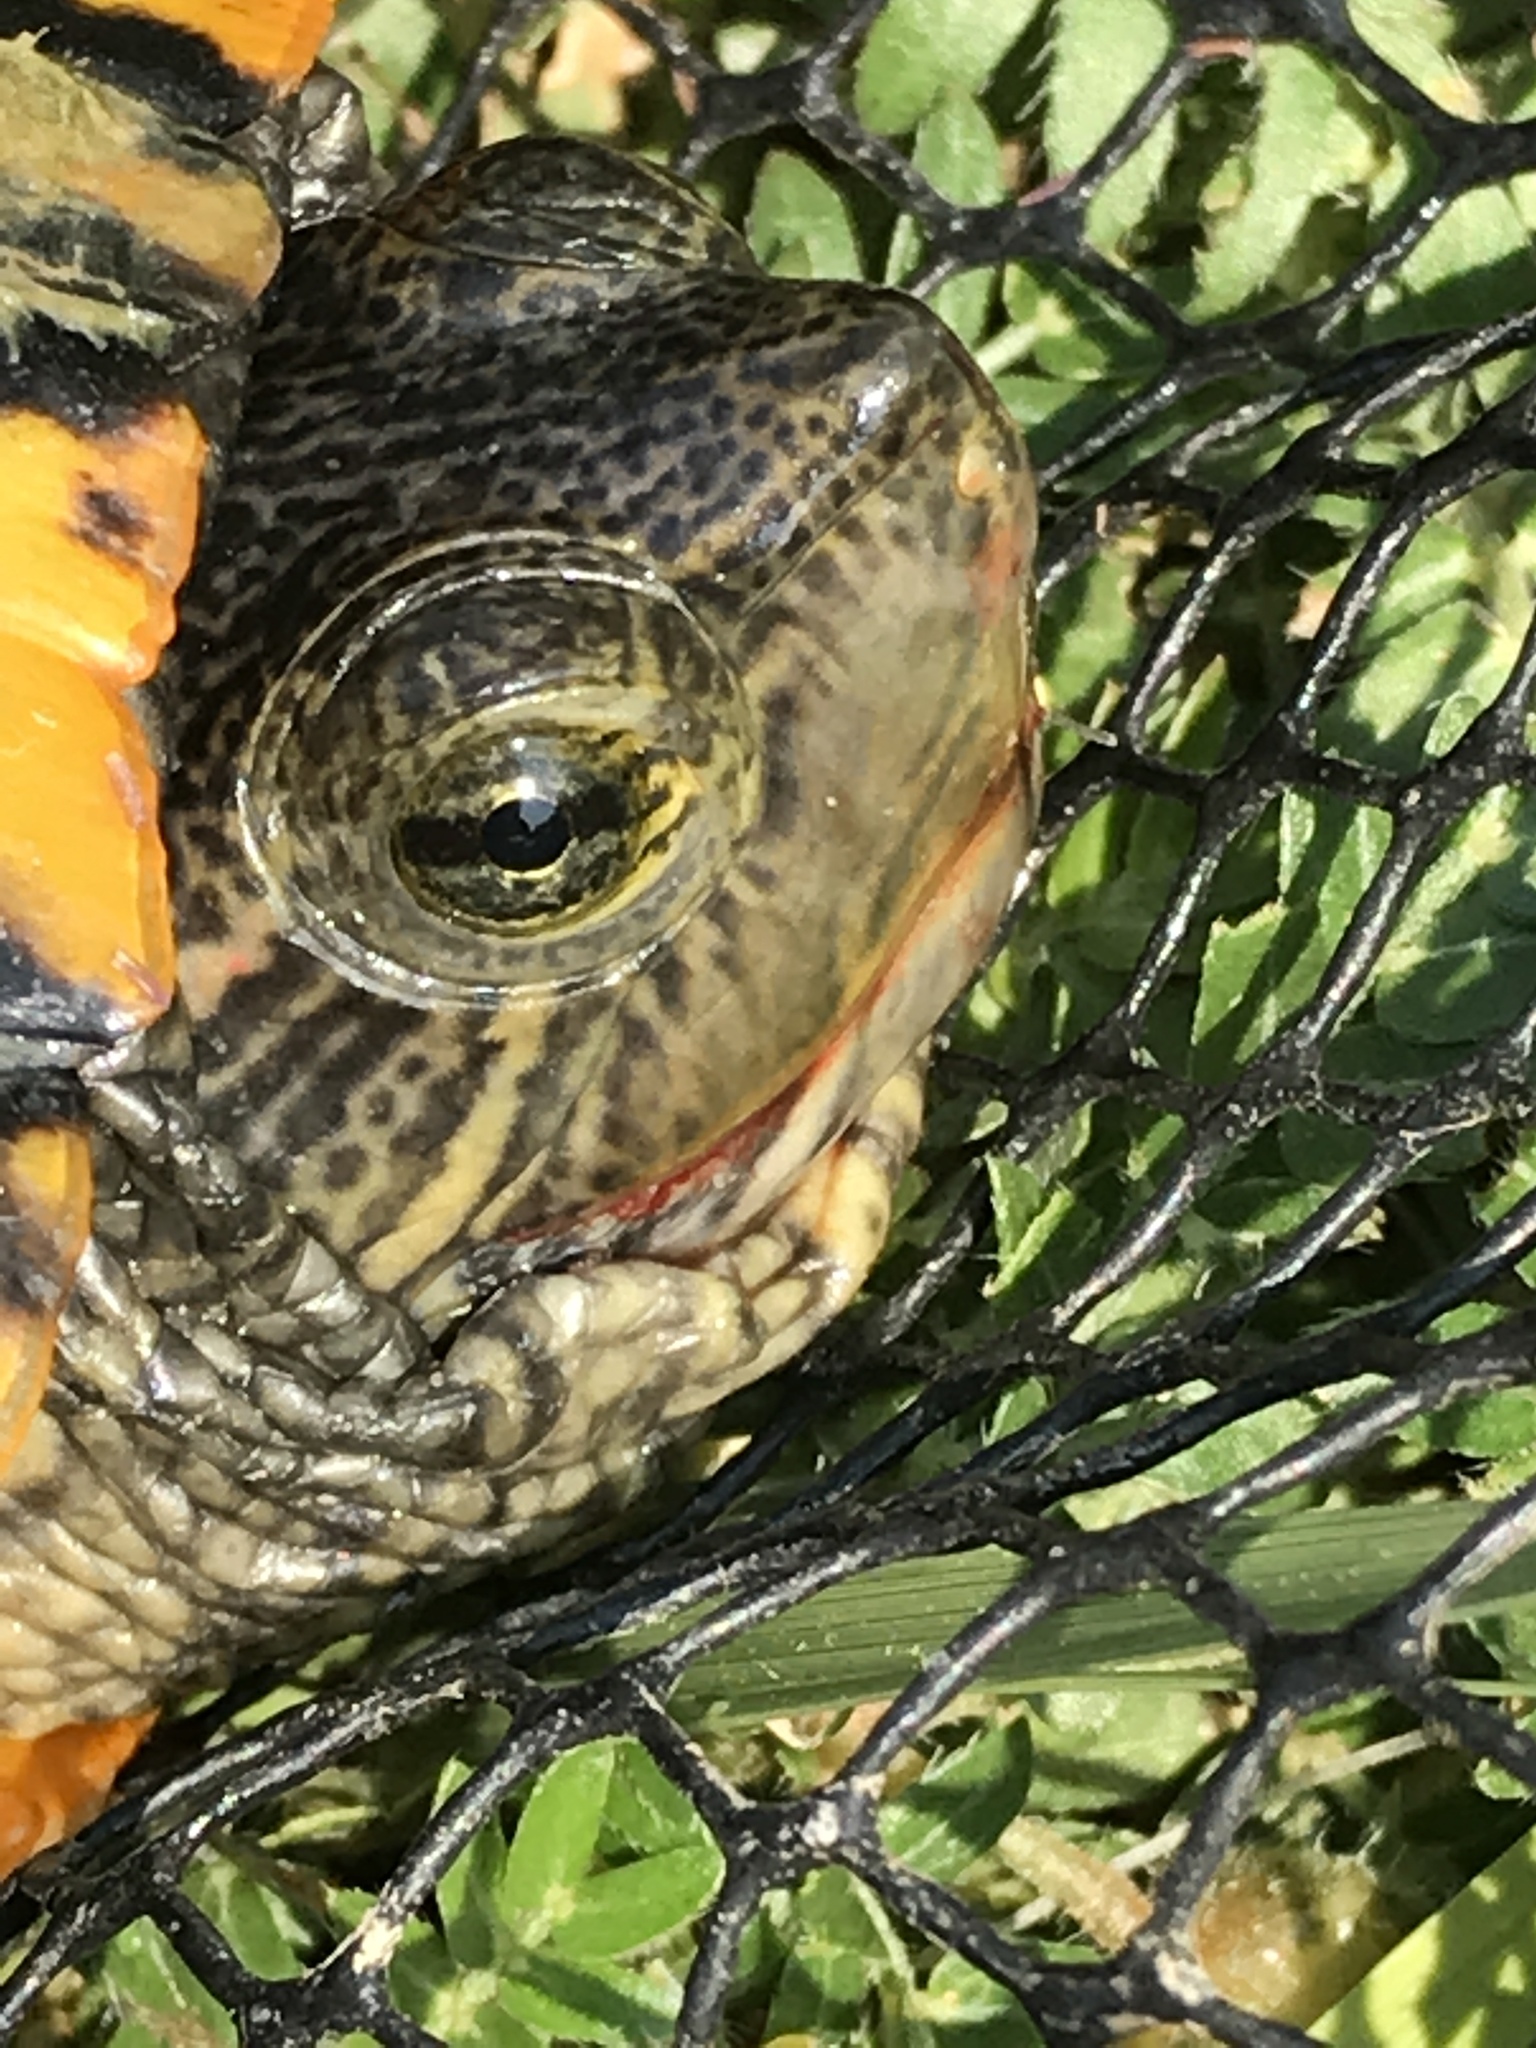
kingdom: Animalia
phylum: Chordata
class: Testudines
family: Emydidae
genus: Trachemys
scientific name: Trachemys scripta
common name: Slider
